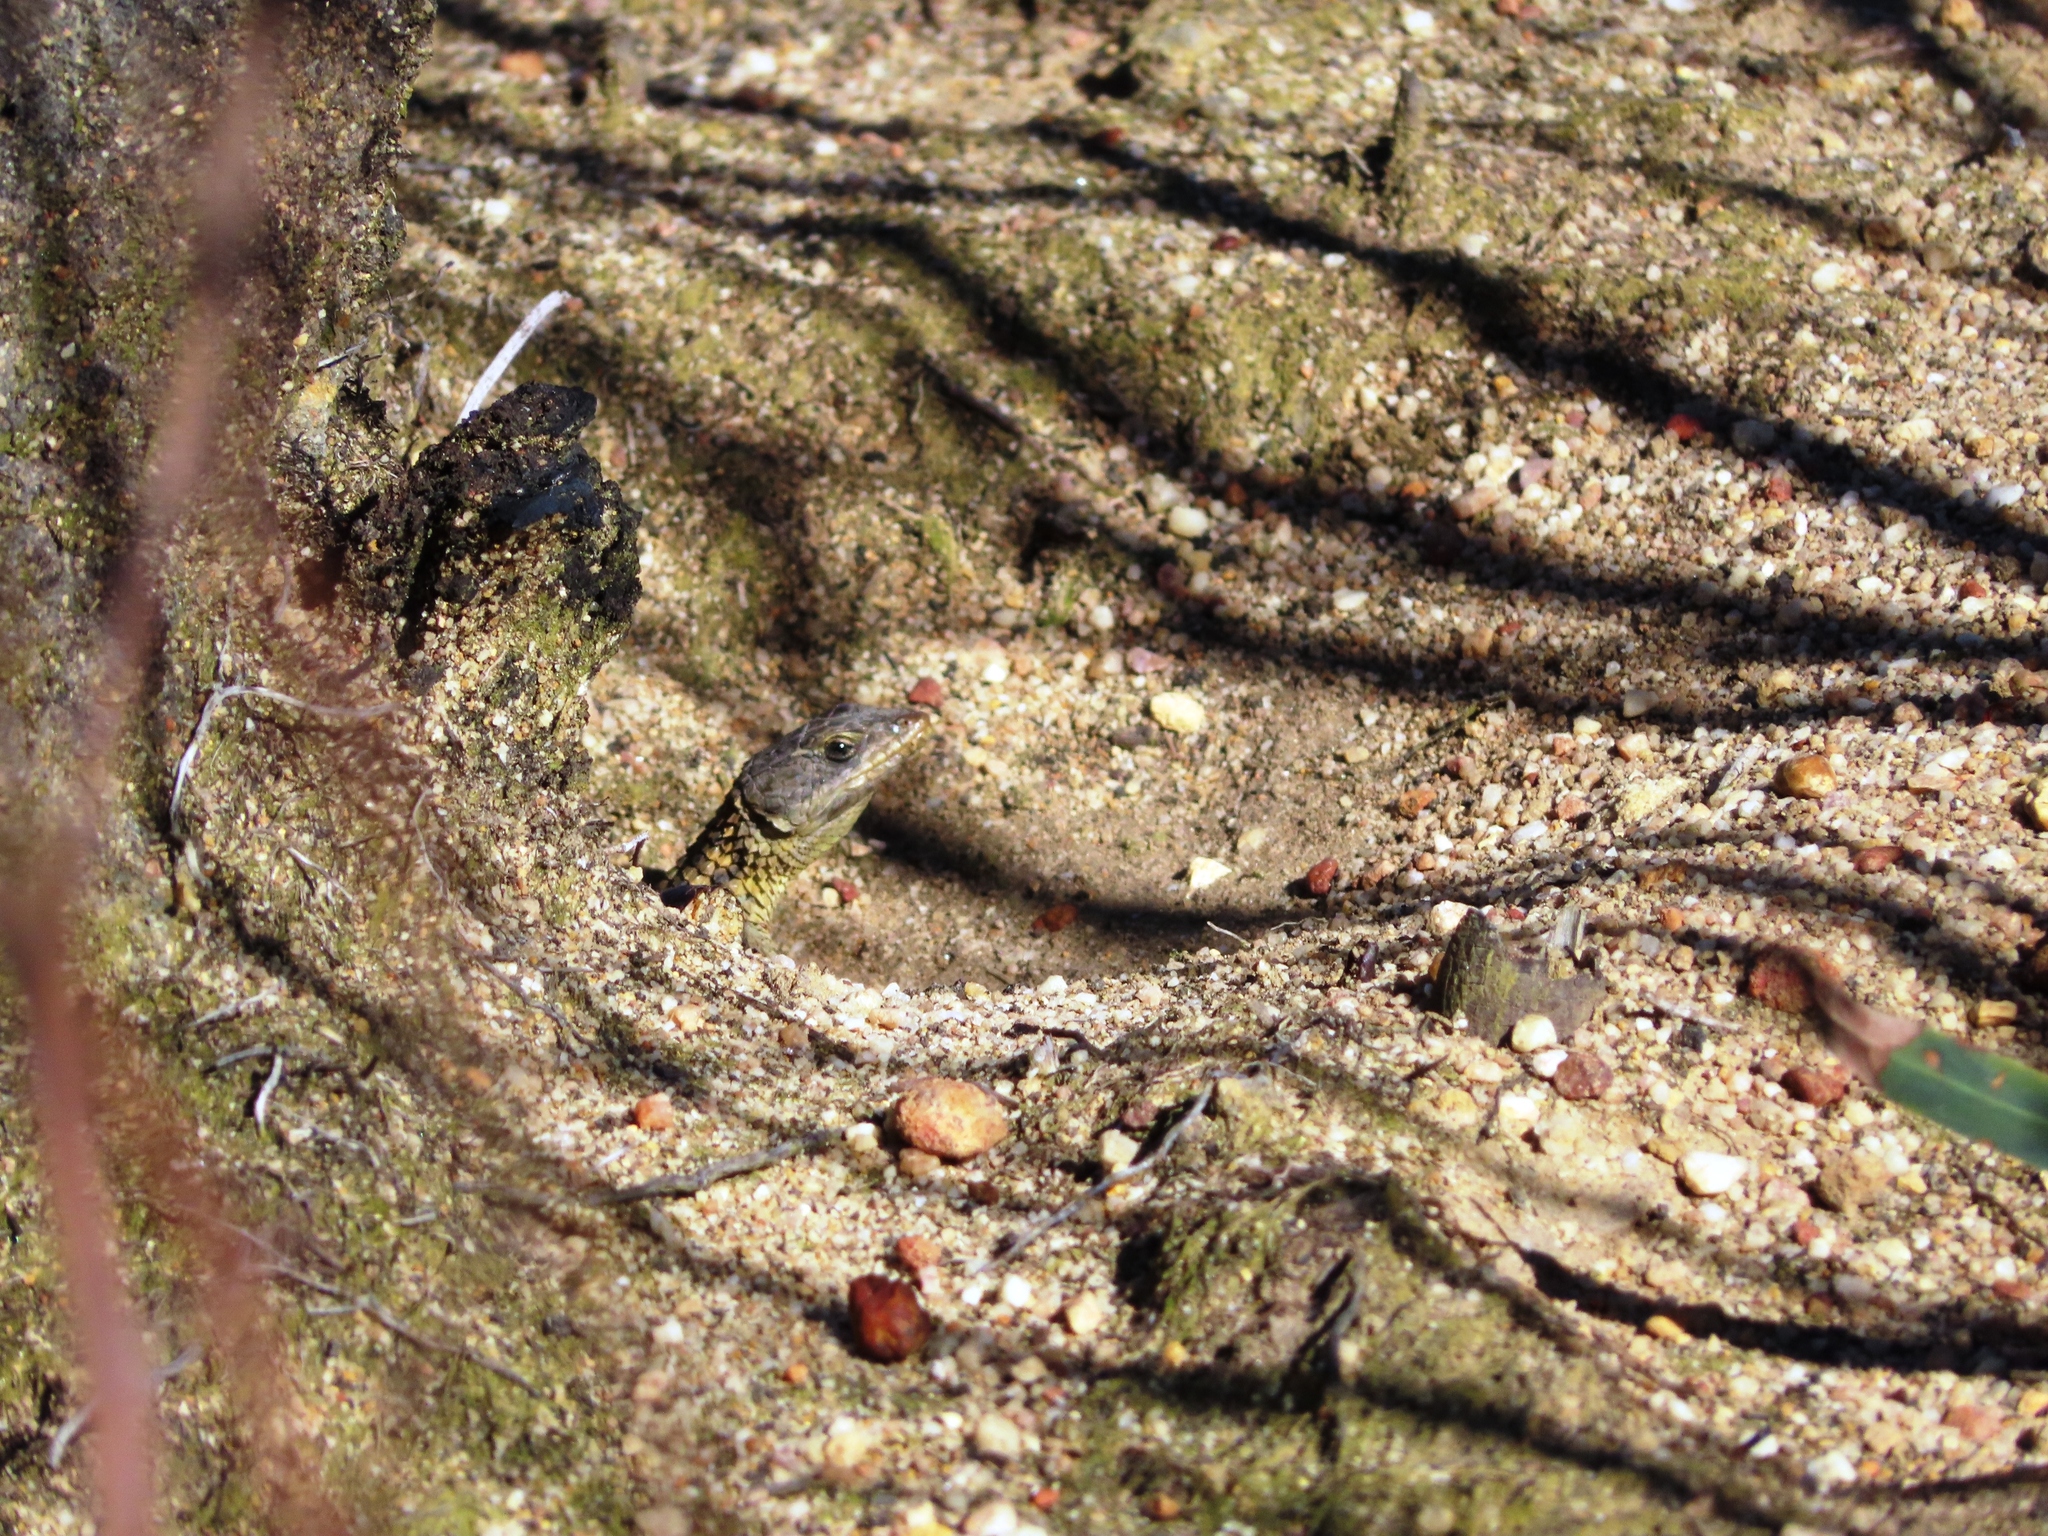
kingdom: Animalia
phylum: Chordata
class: Squamata
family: Cordylidae
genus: Cordylus
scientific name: Cordylus cordylus
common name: Cape girdled lizard
